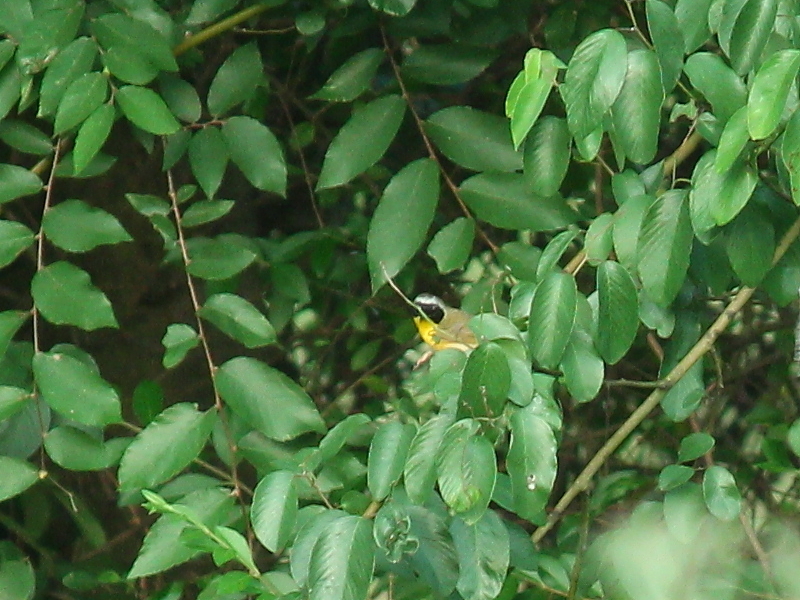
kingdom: Animalia
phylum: Chordata
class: Aves
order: Passeriformes
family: Parulidae
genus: Geothlypis
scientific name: Geothlypis trichas
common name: Common yellowthroat
